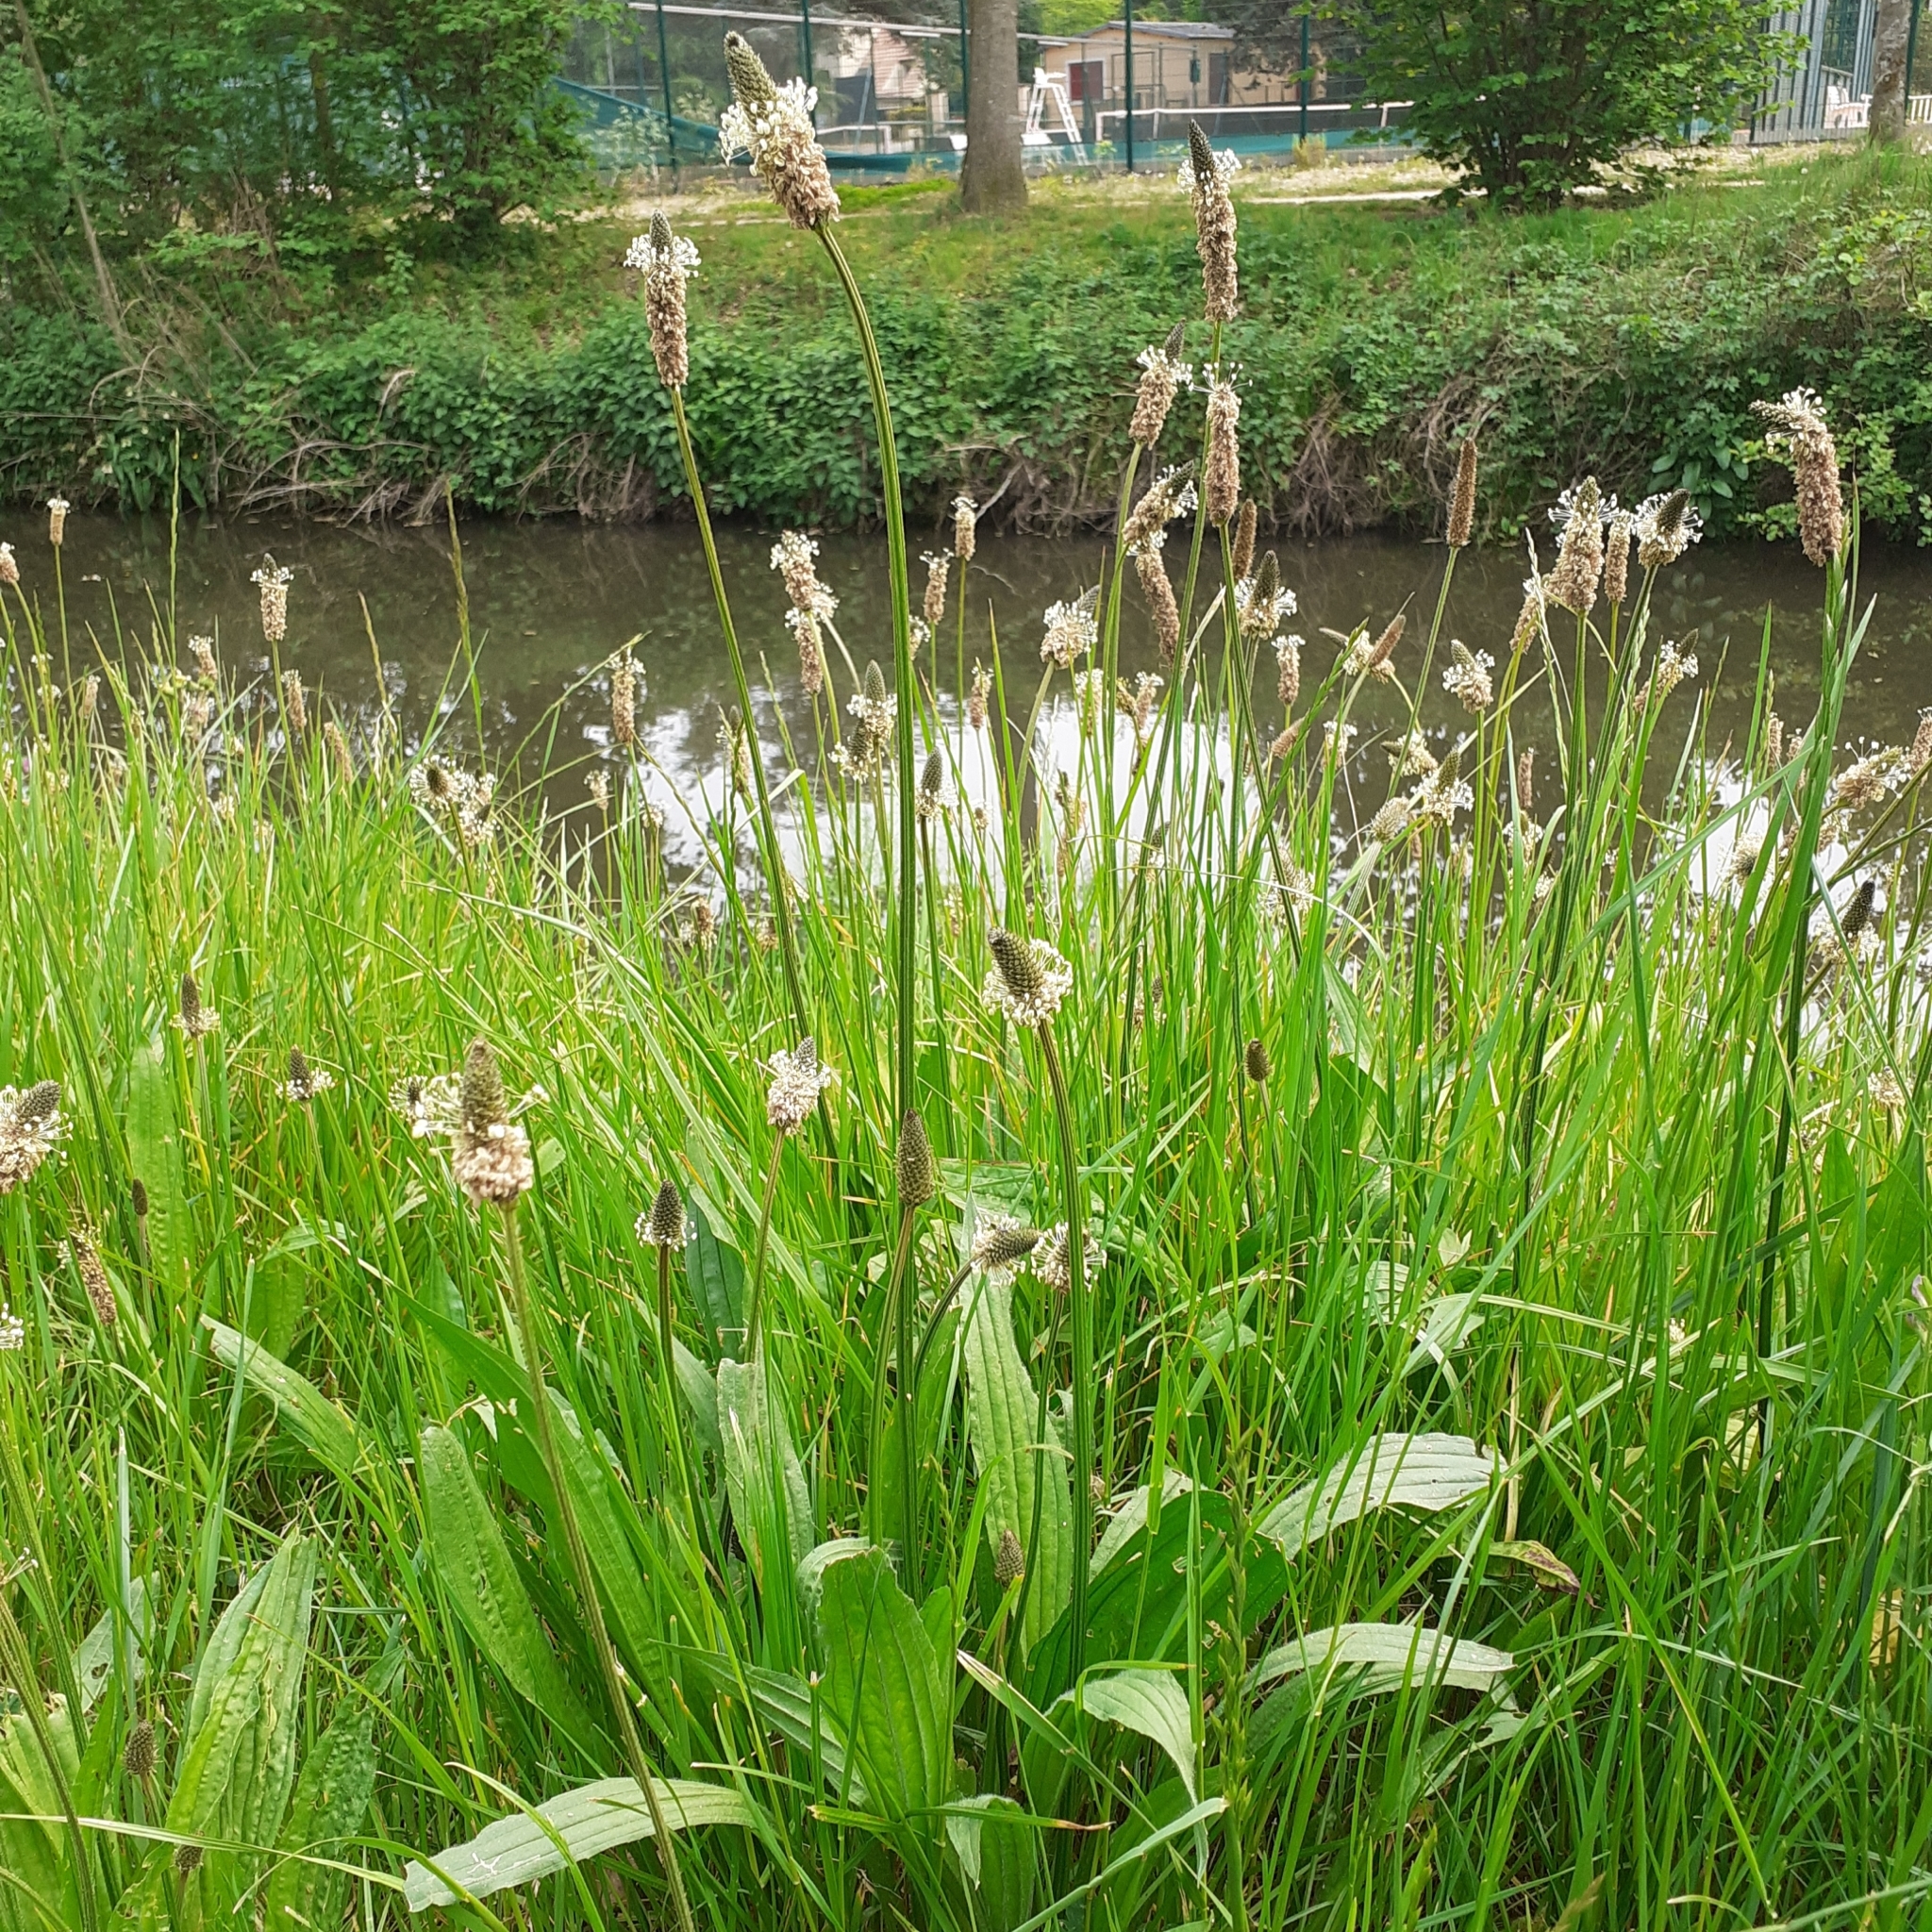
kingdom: Plantae
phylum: Tracheophyta
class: Magnoliopsida
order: Lamiales
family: Plantaginaceae
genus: Plantago
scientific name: Plantago lanceolata
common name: Ribwort plantain
